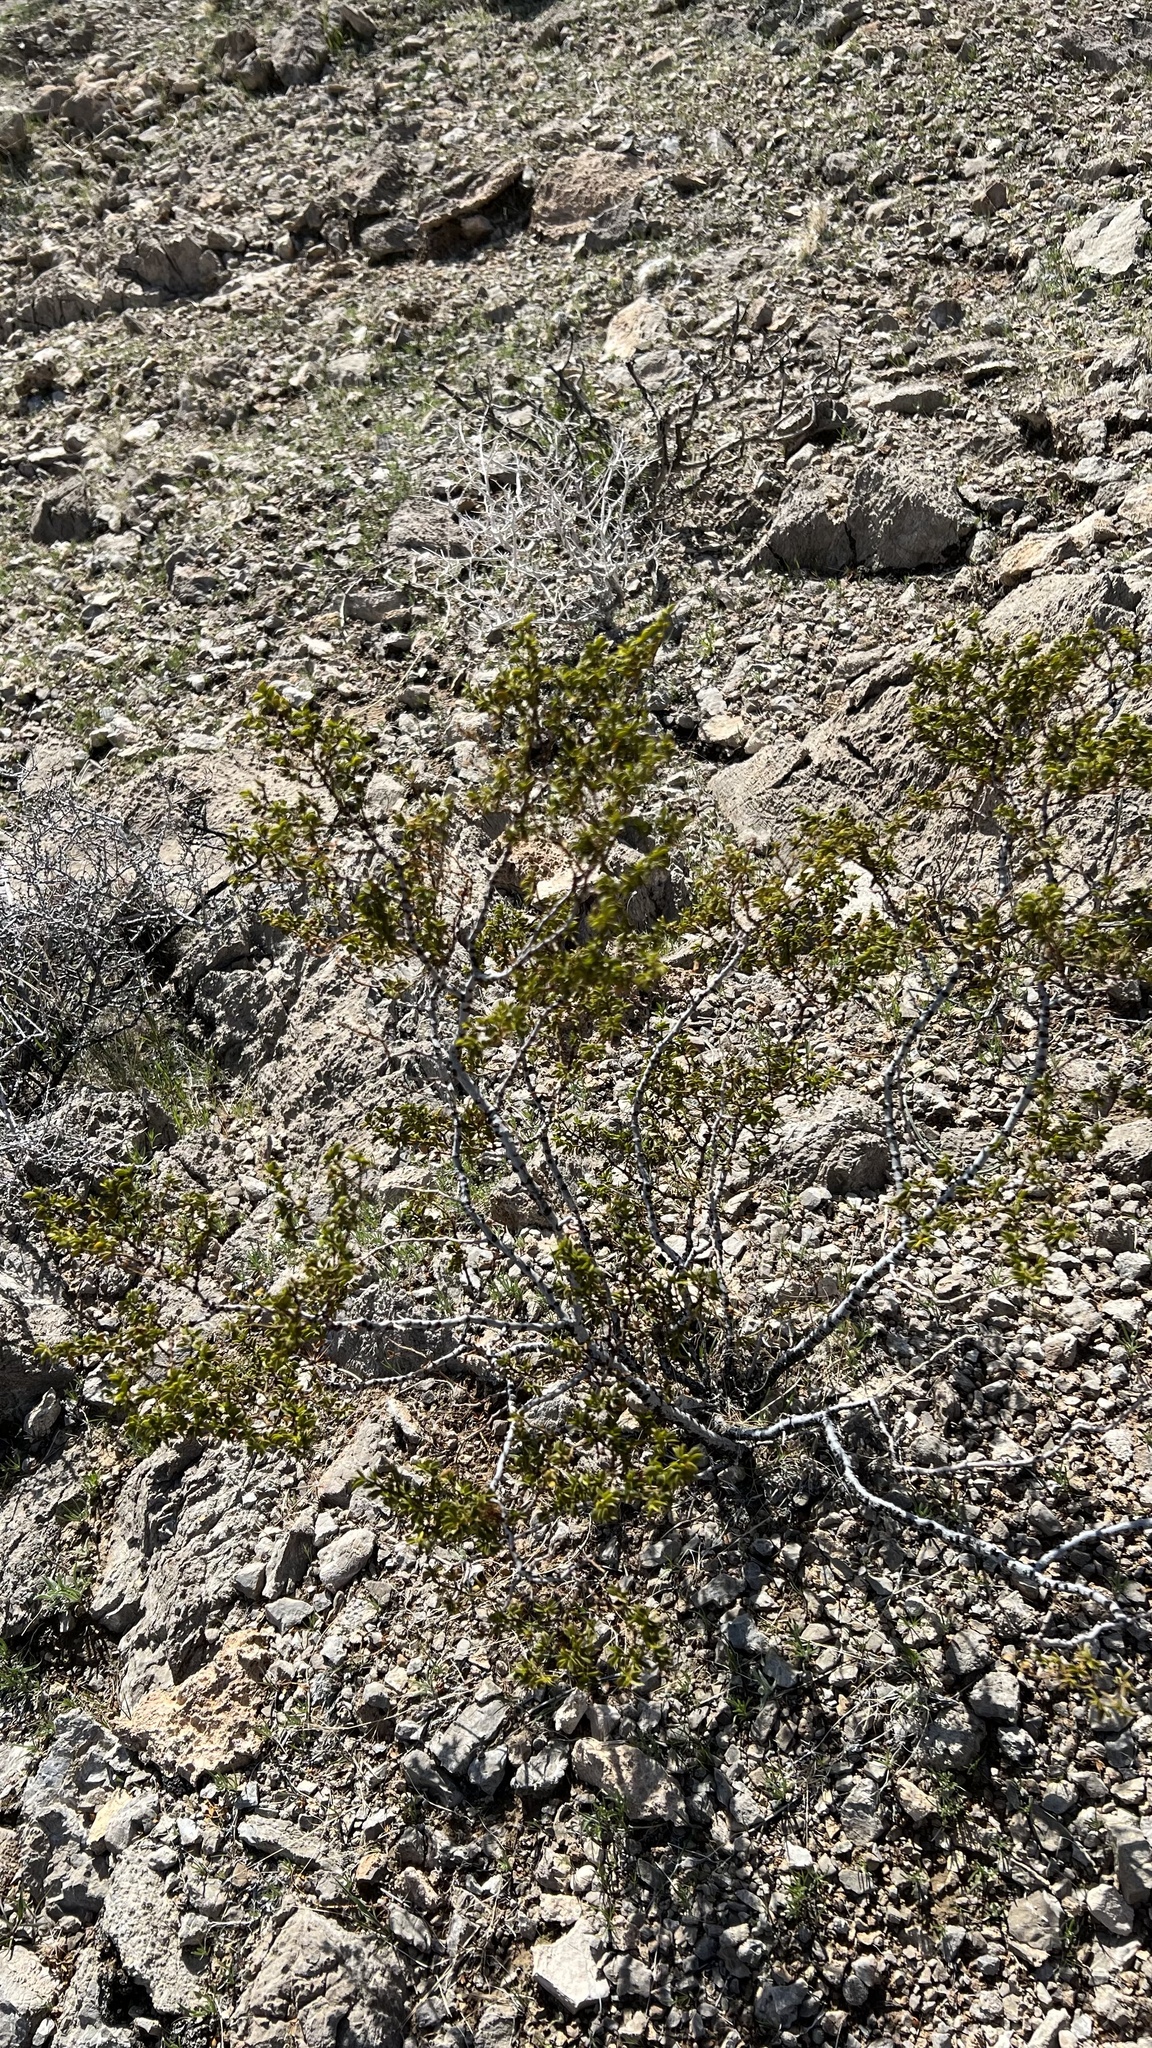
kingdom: Plantae
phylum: Tracheophyta
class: Magnoliopsida
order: Zygophyllales
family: Zygophyllaceae
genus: Larrea
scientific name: Larrea tridentata
